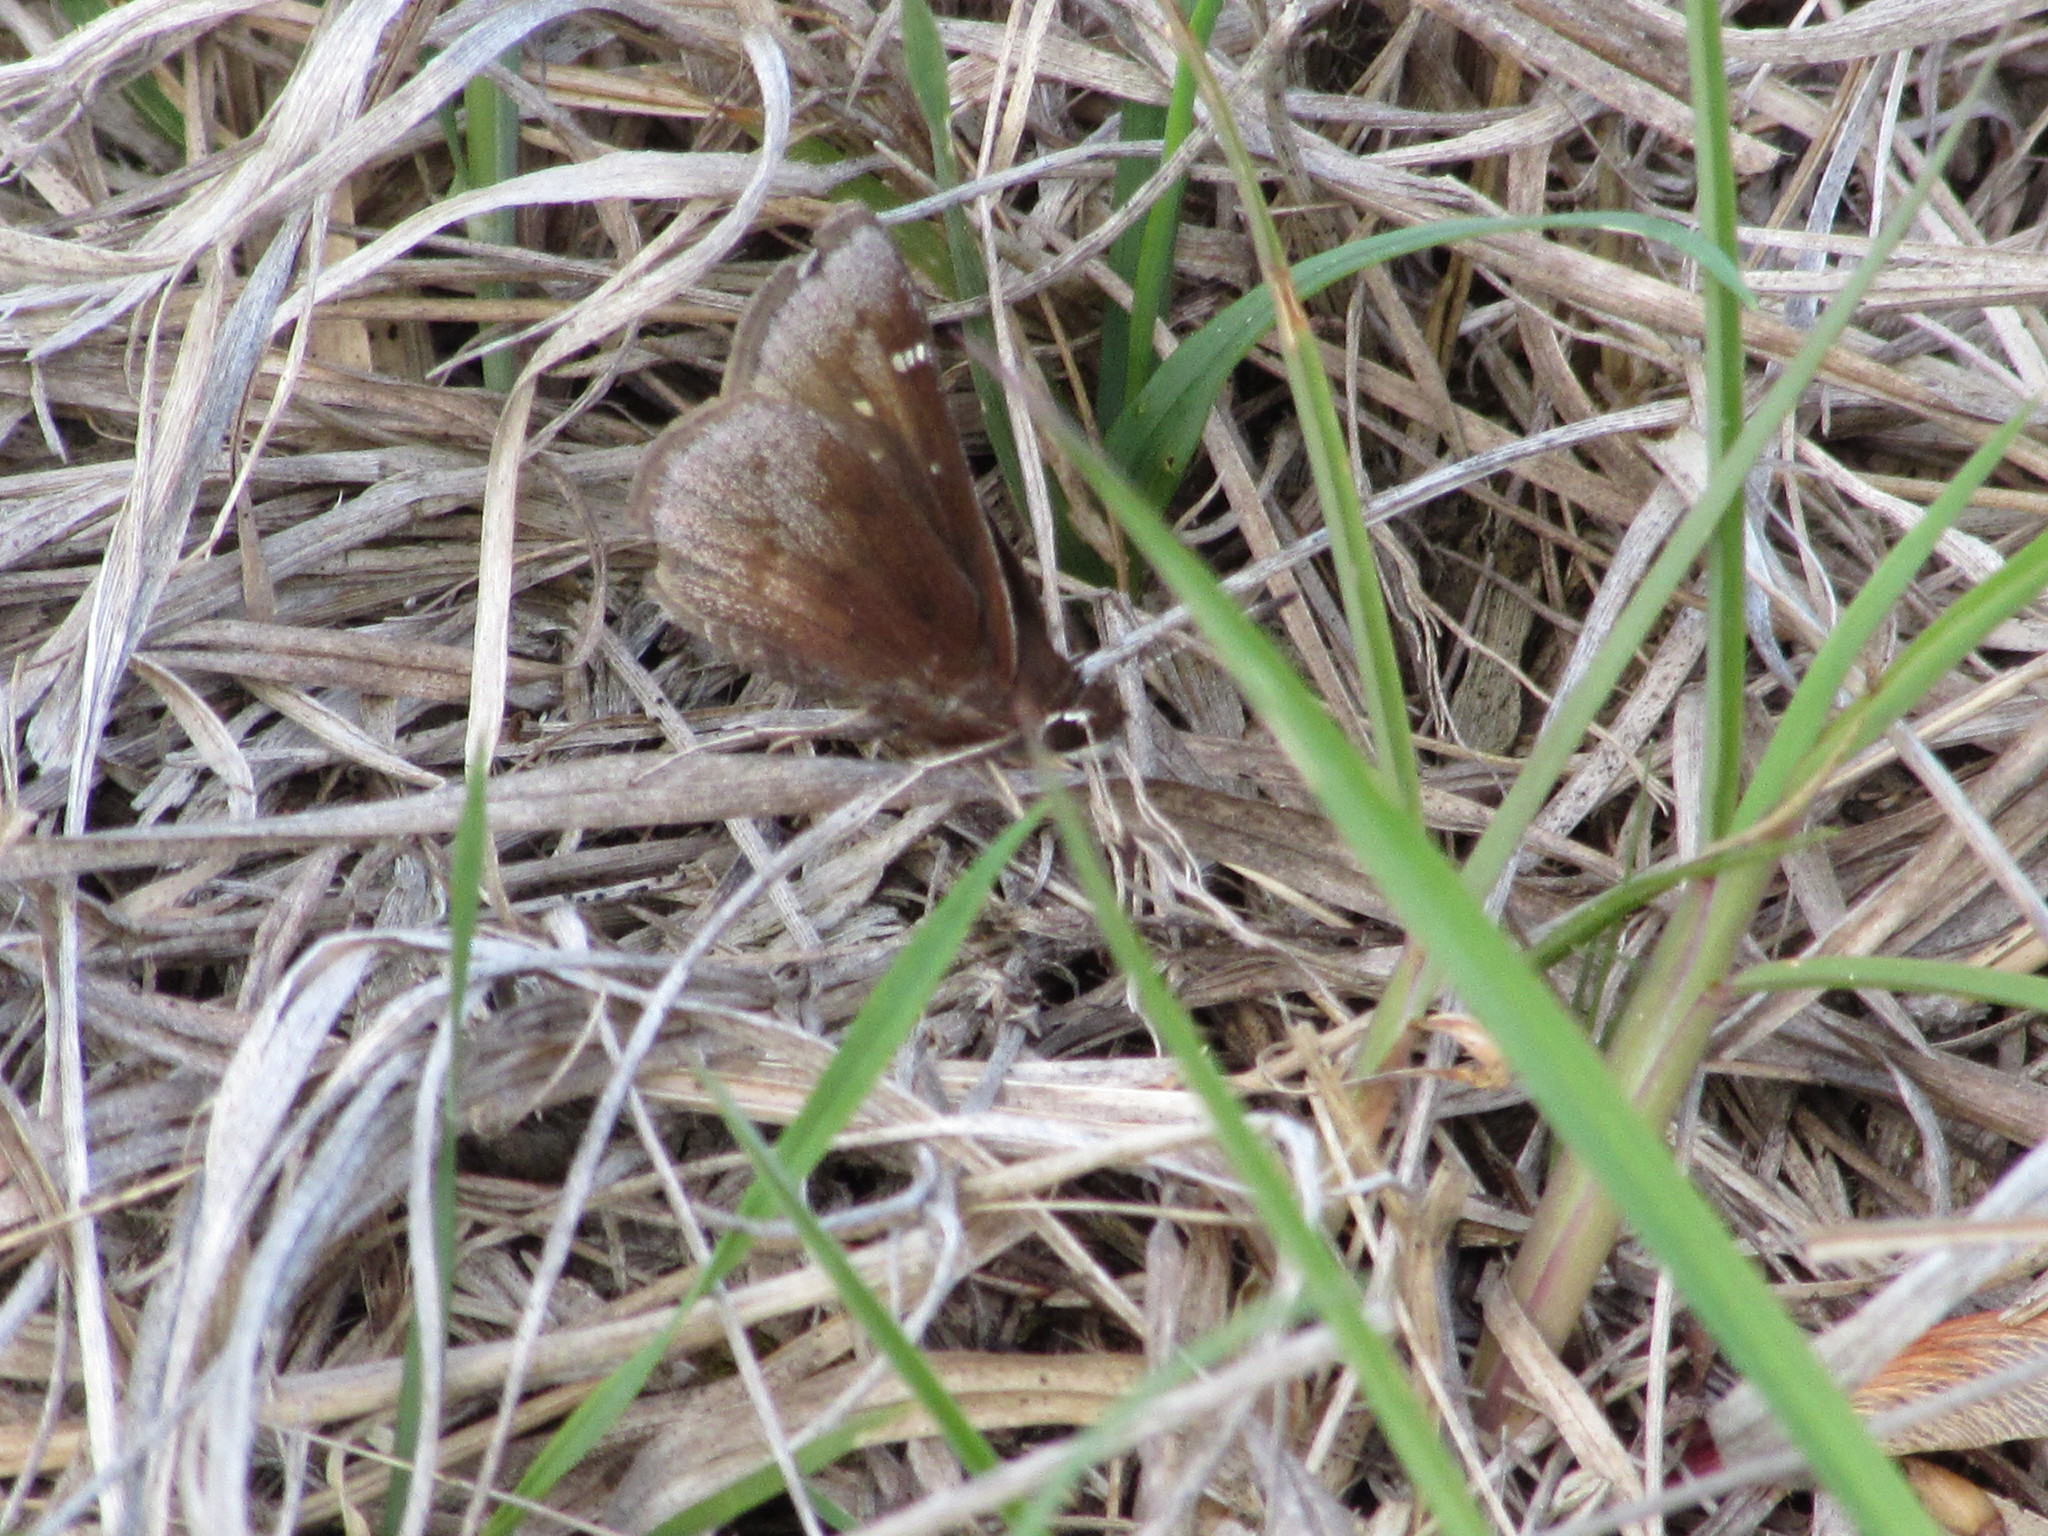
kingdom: Animalia
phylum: Arthropoda
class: Insecta
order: Lepidoptera
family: Hesperiidae
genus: Atrytonopsis
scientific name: Atrytonopsis hianna
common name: Dusted skipper
